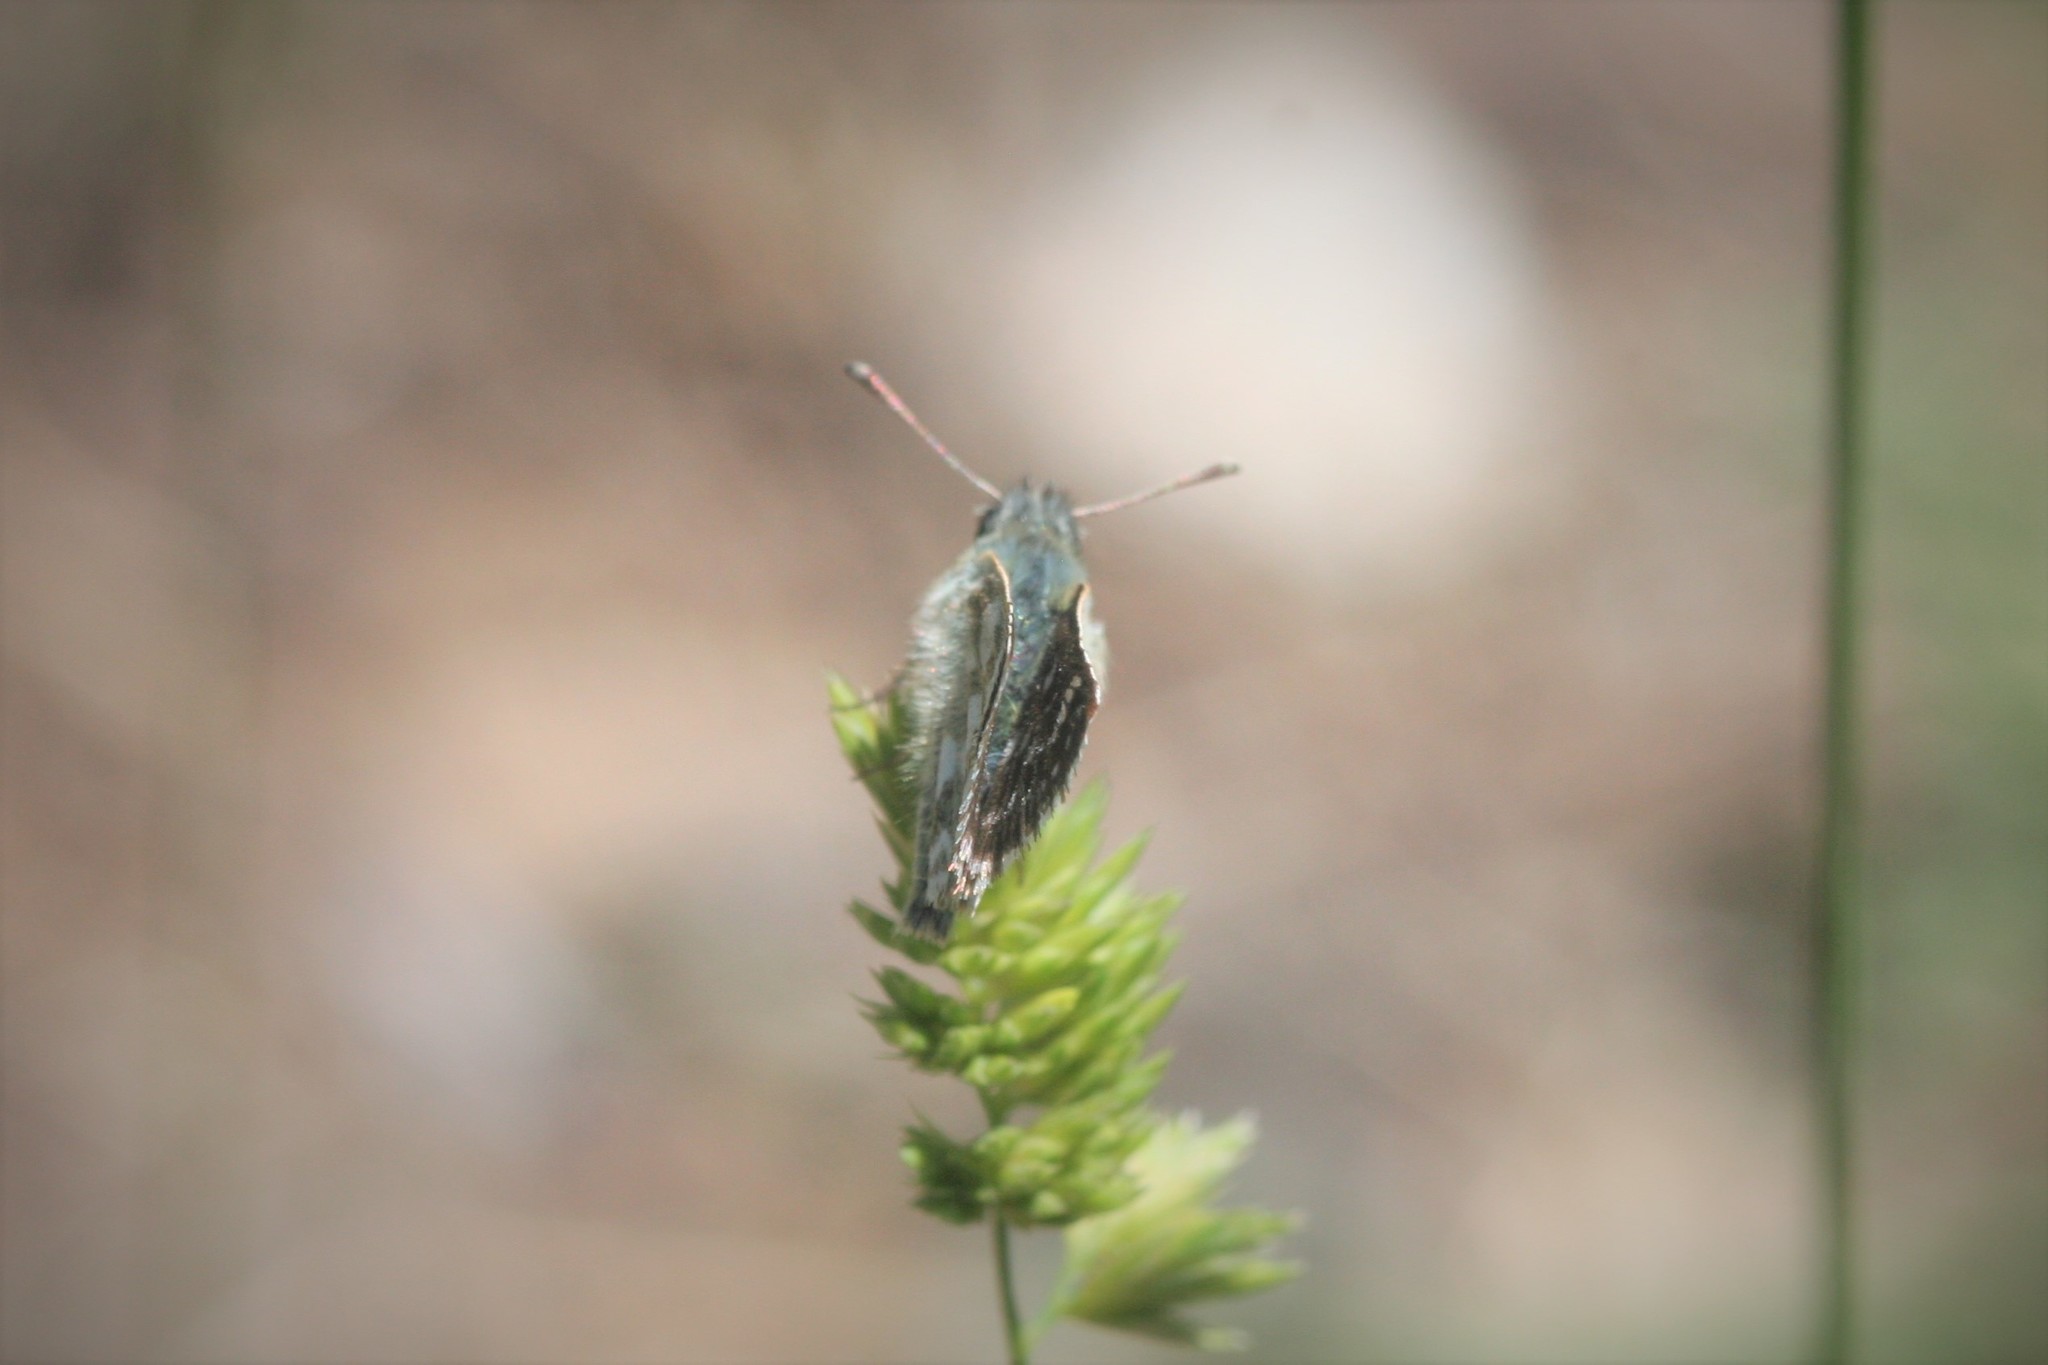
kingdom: Animalia
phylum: Arthropoda
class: Insecta
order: Lepidoptera
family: Hesperiidae
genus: Spialia
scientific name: Spialia sertorius
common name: Red underwing skipper
